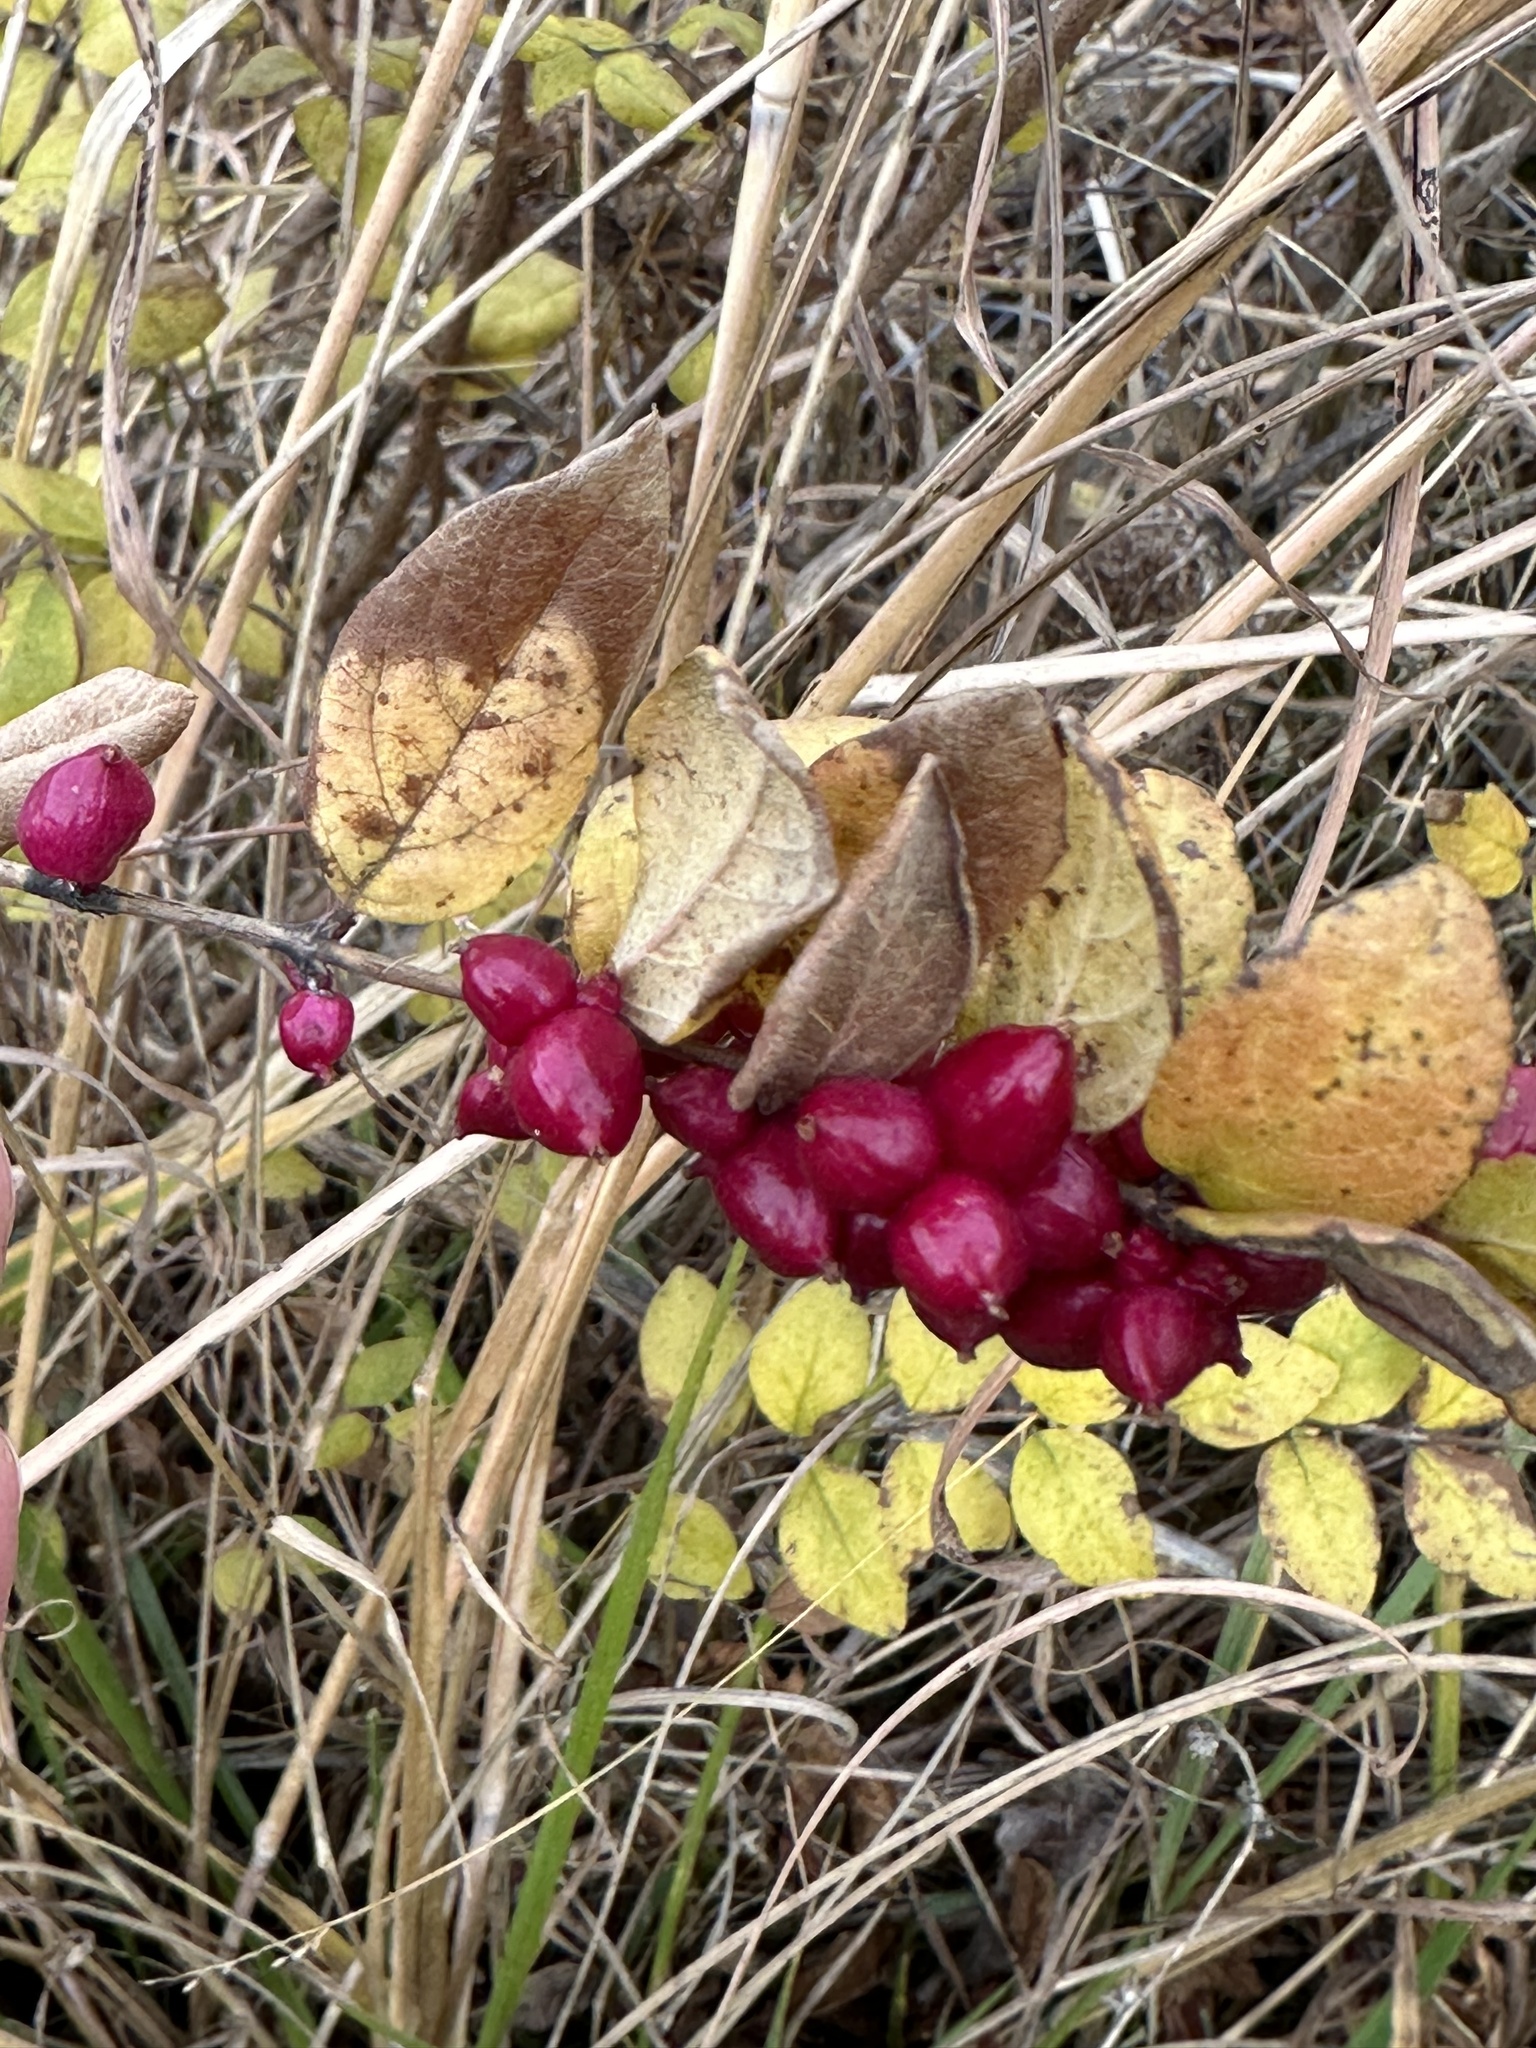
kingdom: Plantae
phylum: Tracheophyta
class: Magnoliopsida
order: Dipsacales
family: Caprifoliaceae
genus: Symphoricarpos
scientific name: Symphoricarpos orbiculatus
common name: Coralberry
